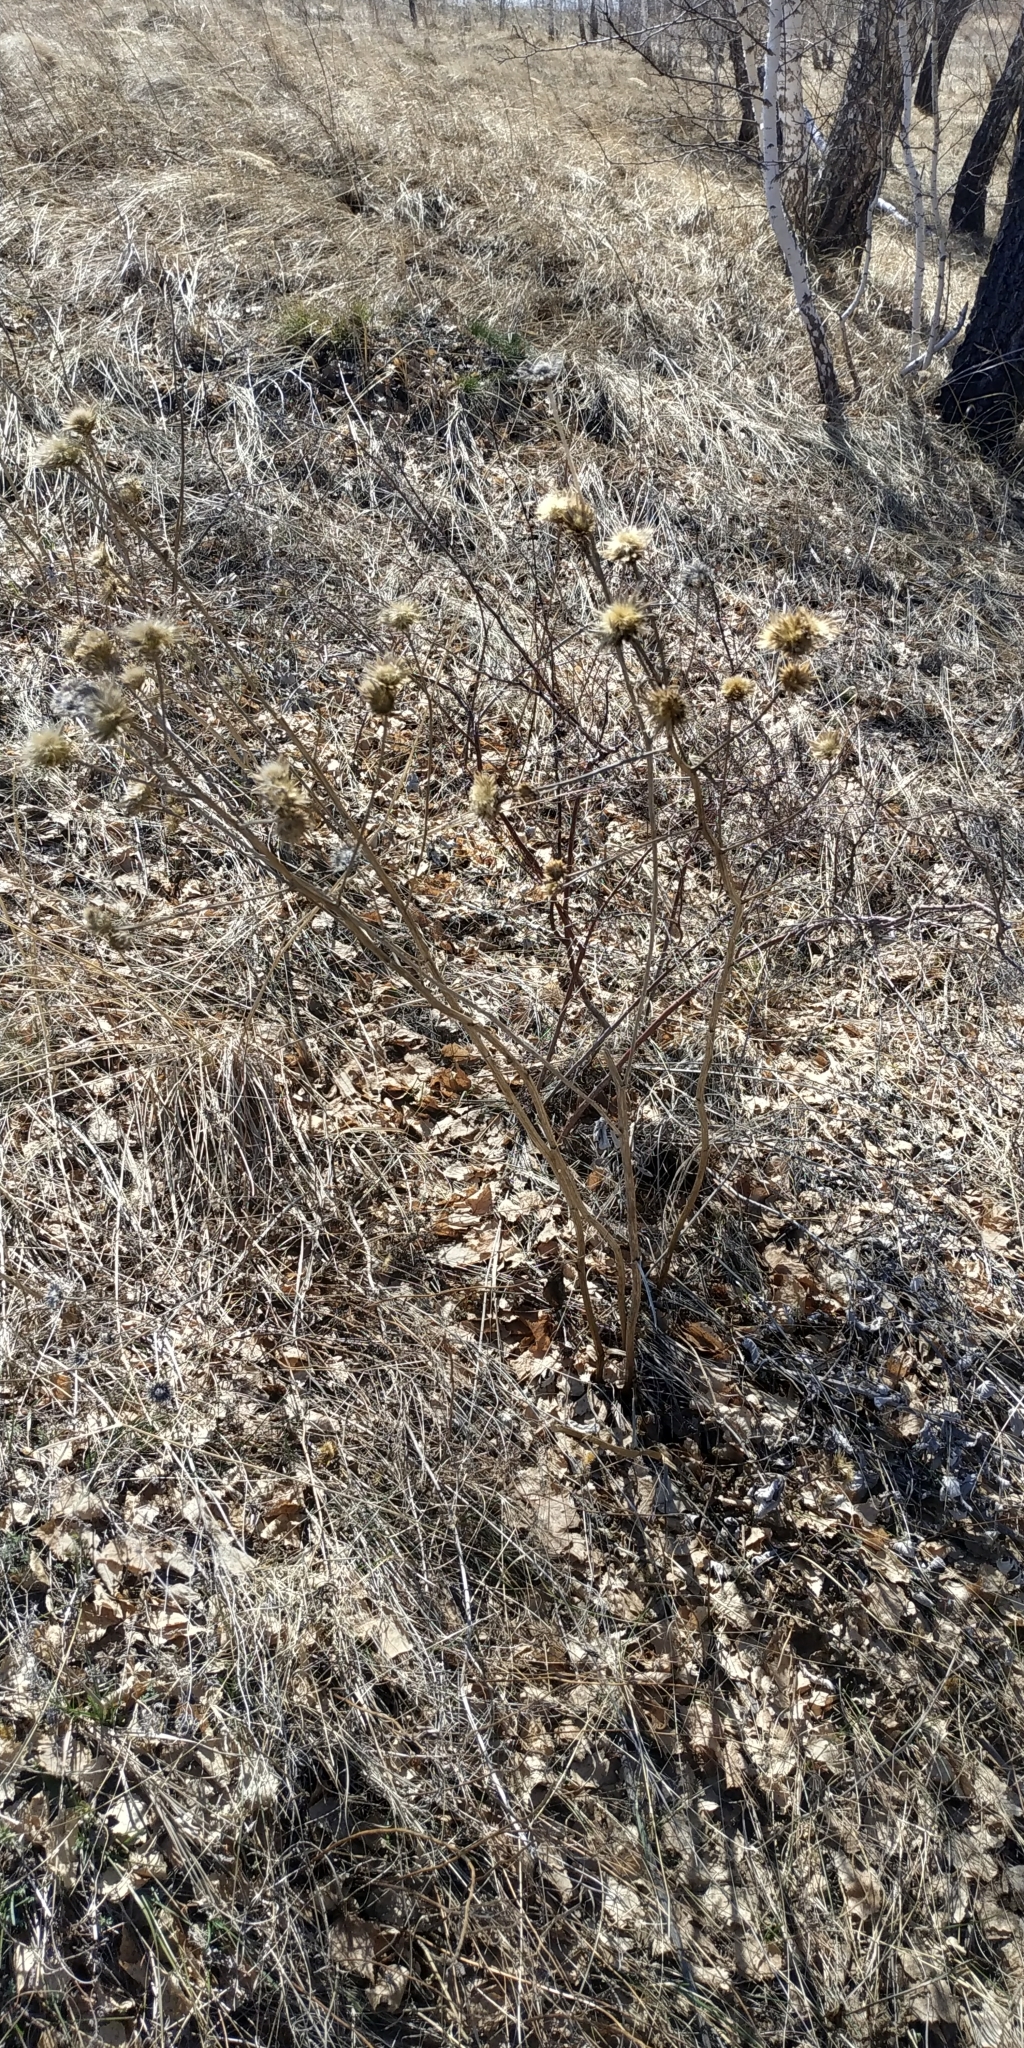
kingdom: Plantae
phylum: Tracheophyta
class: Magnoliopsida
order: Asterales
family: Asteraceae
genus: Serratula
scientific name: Serratula coronata
